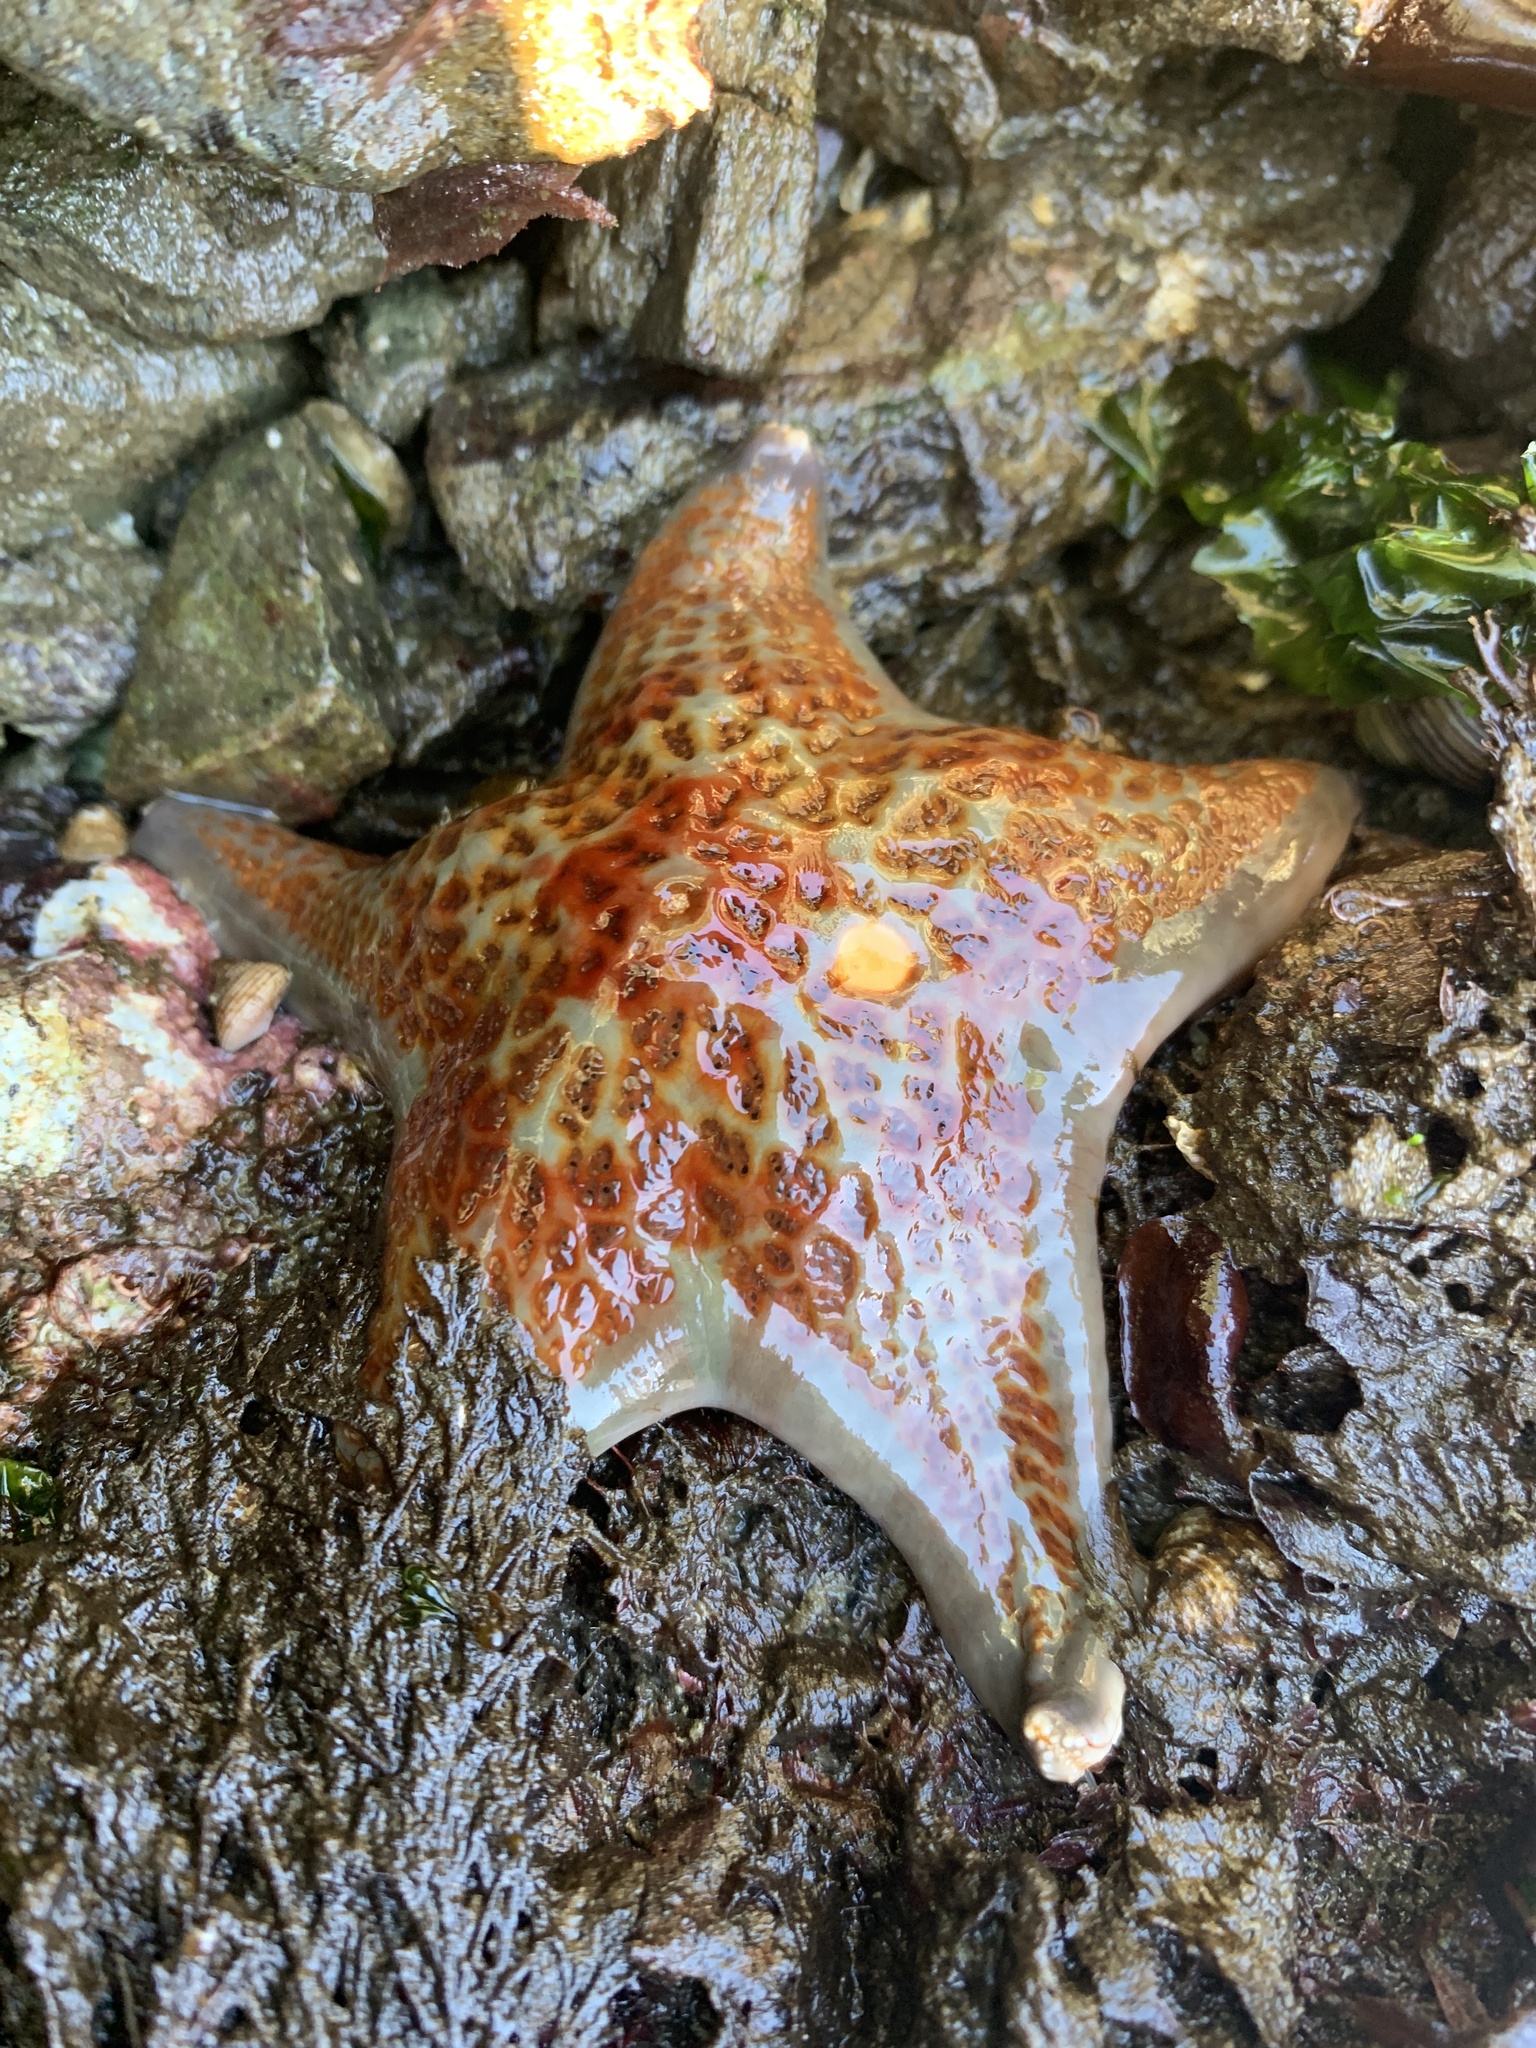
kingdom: Animalia
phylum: Echinodermata
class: Asteroidea
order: Valvatida
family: Asteropseidae
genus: Dermasterias
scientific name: Dermasterias imbricata
